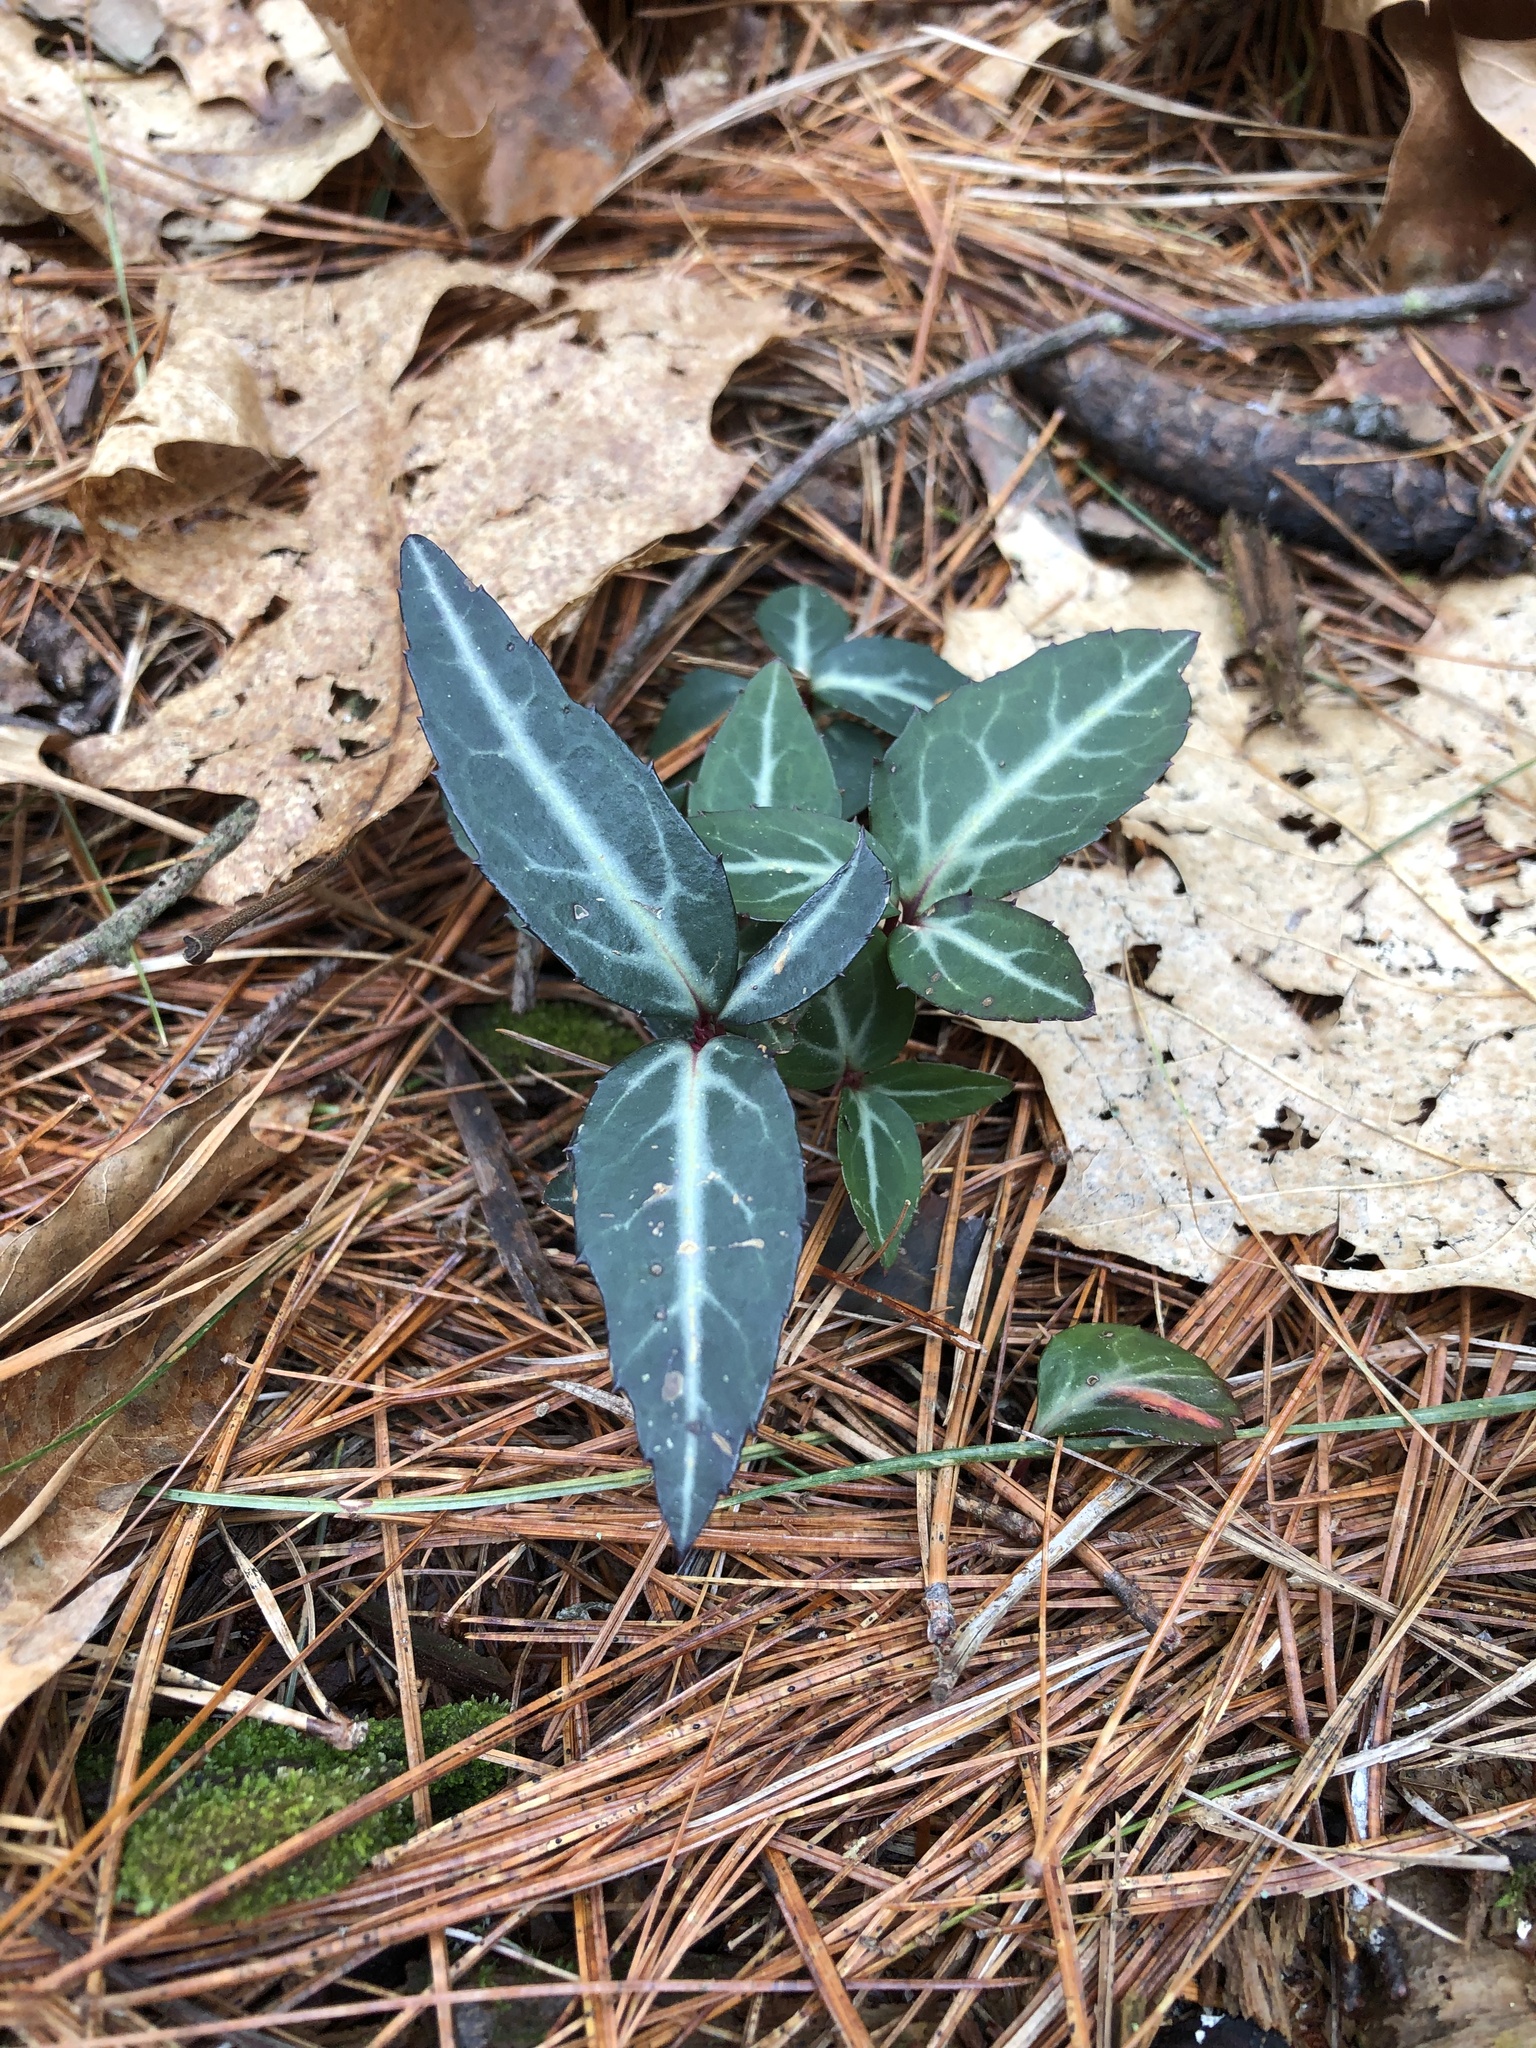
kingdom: Plantae
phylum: Tracheophyta
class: Magnoliopsida
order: Ericales
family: Ericaceae
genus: Chimaphila
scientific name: Chimaphila maculata
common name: Spotted pipsissewa
